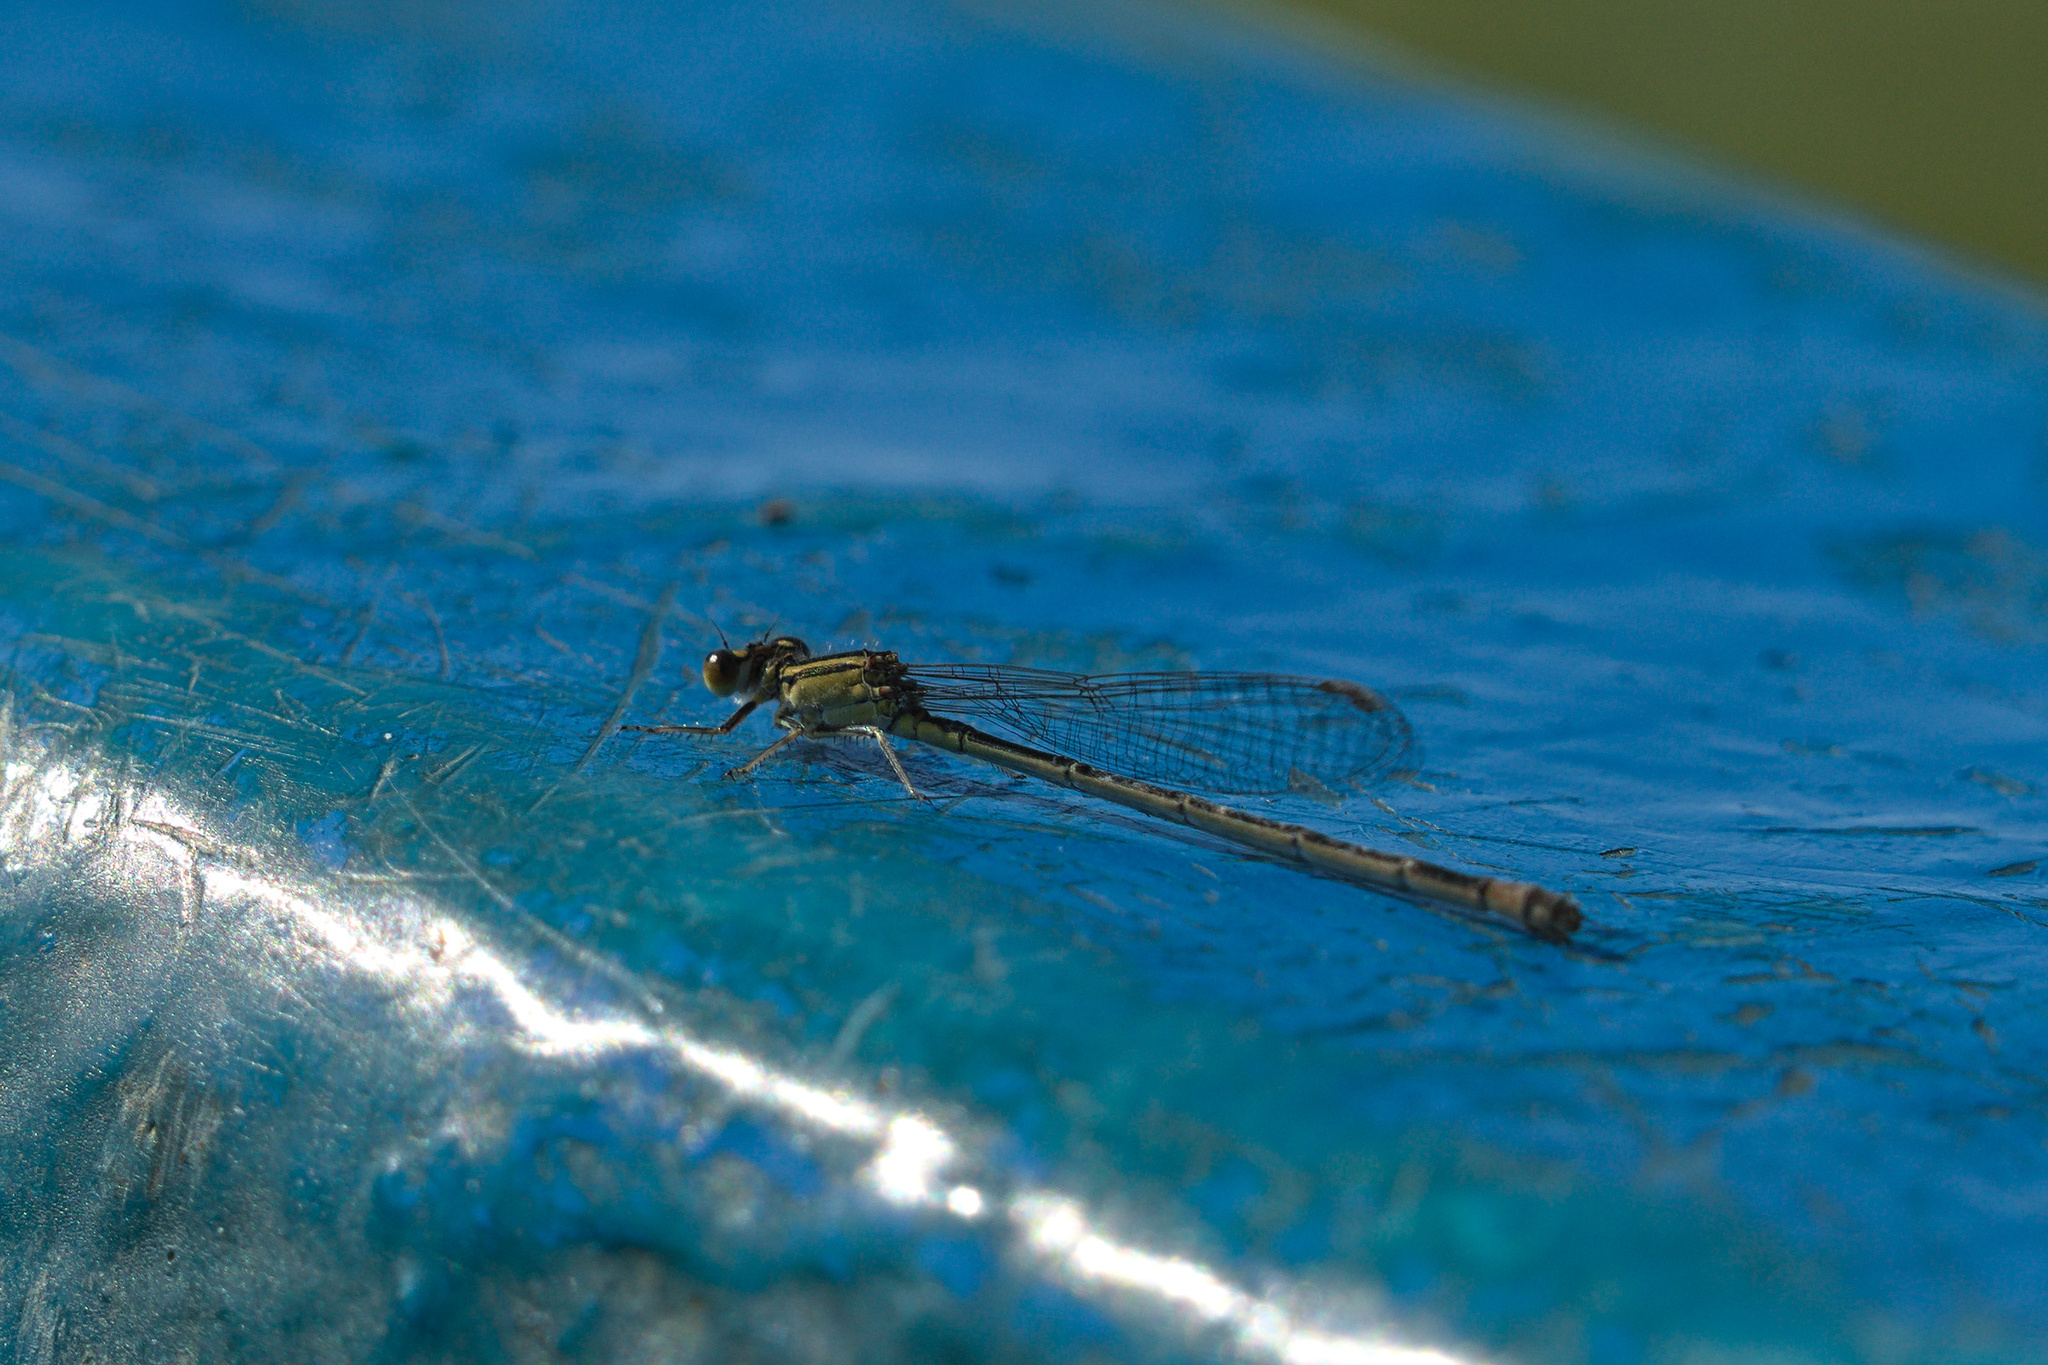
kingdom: Animalia
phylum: Arthropoda
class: Insecta
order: Odonata
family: Coenagrionidae
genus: Ischnura
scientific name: Ischnura elegans
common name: Blue-tailed damselfly
